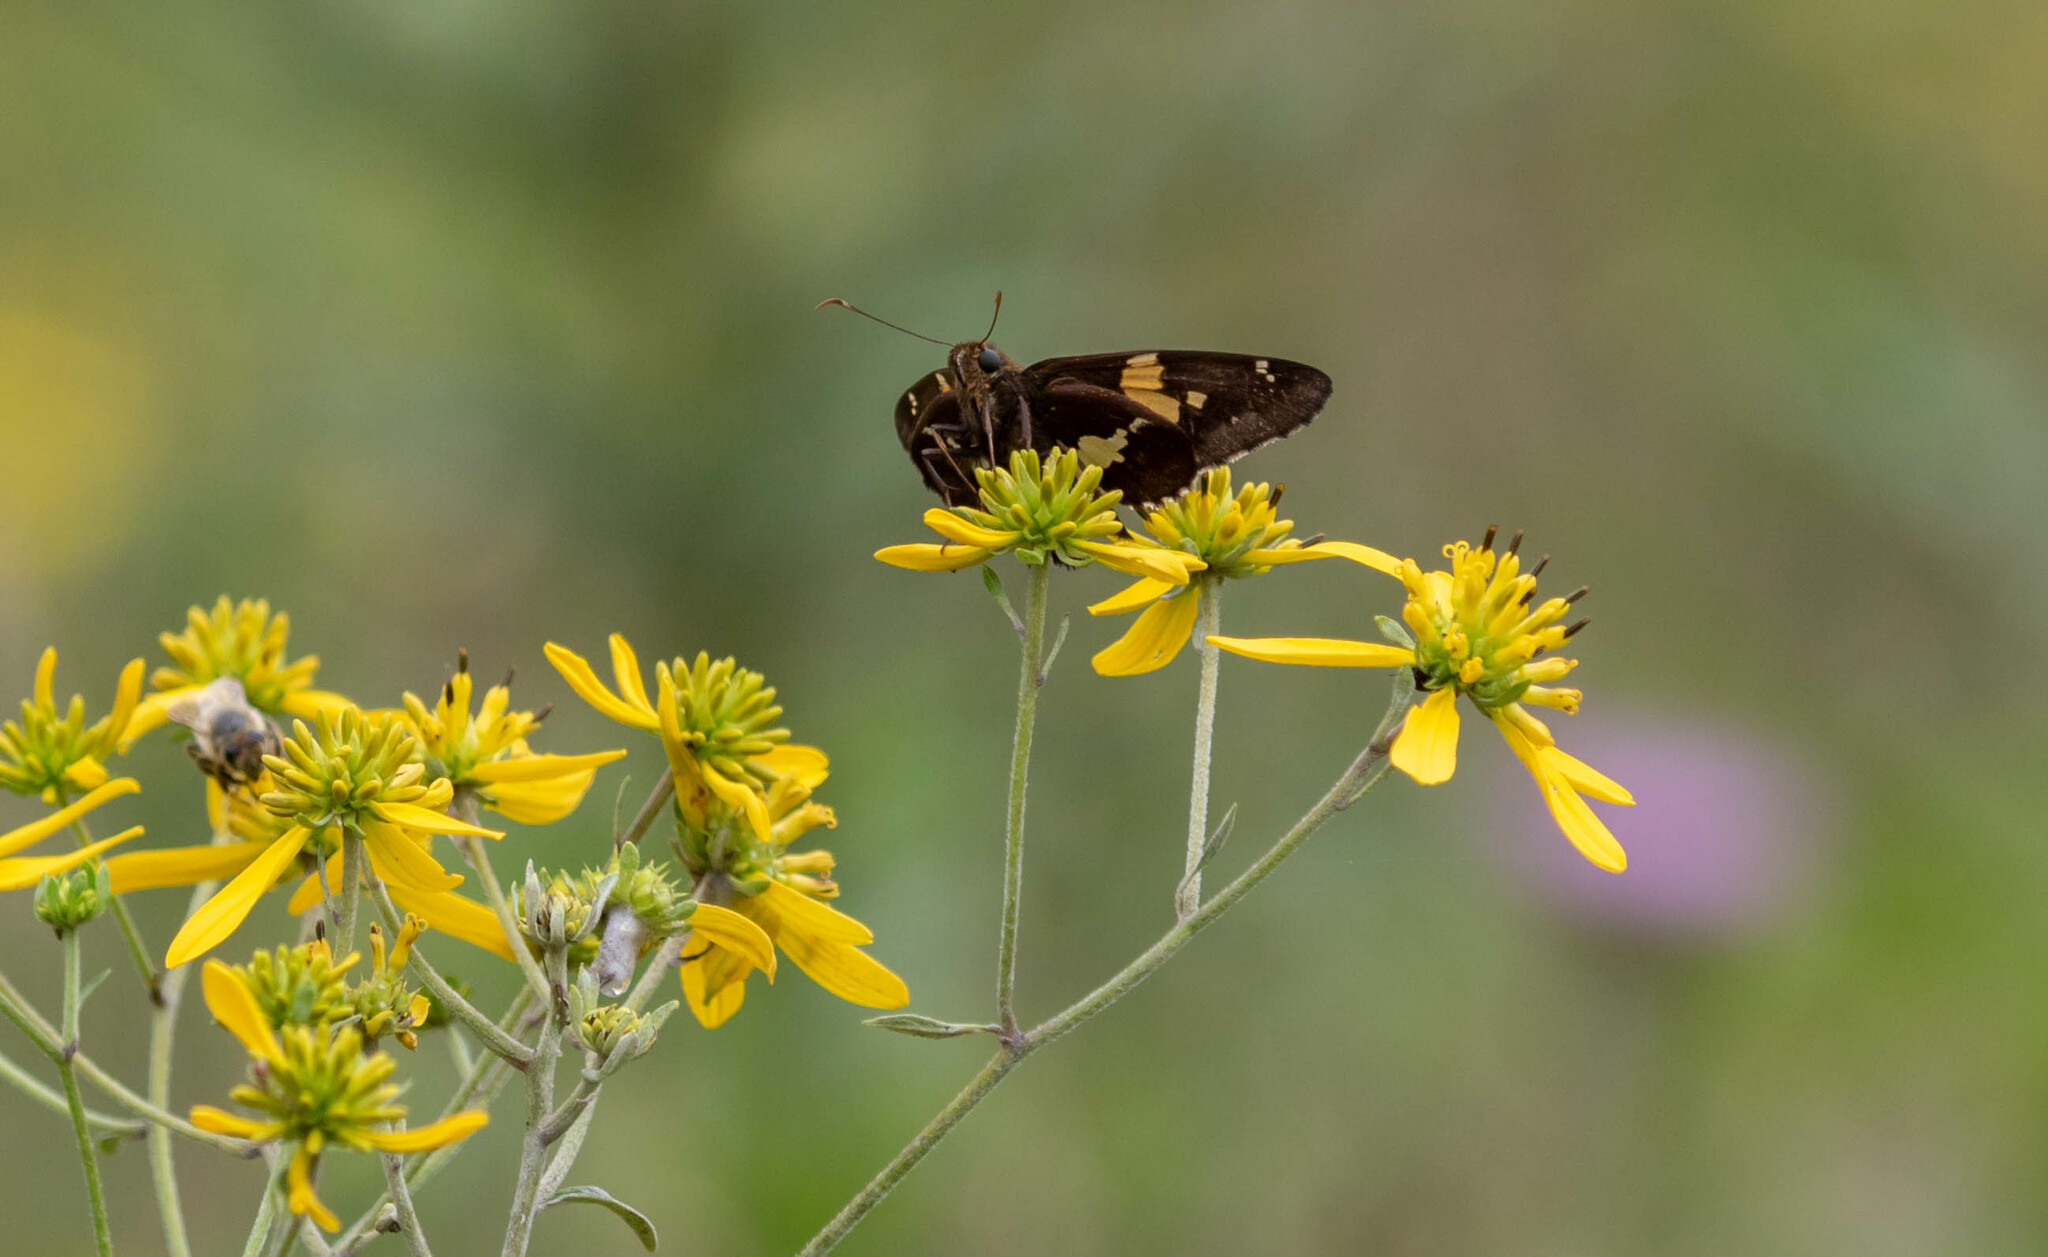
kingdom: Animalia
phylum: Arthropoda
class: Insecta
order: Lepidoptera
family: Hesperiidae
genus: Epargyreus
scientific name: Epargyreus clarus
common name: Silver-spotted skipper
